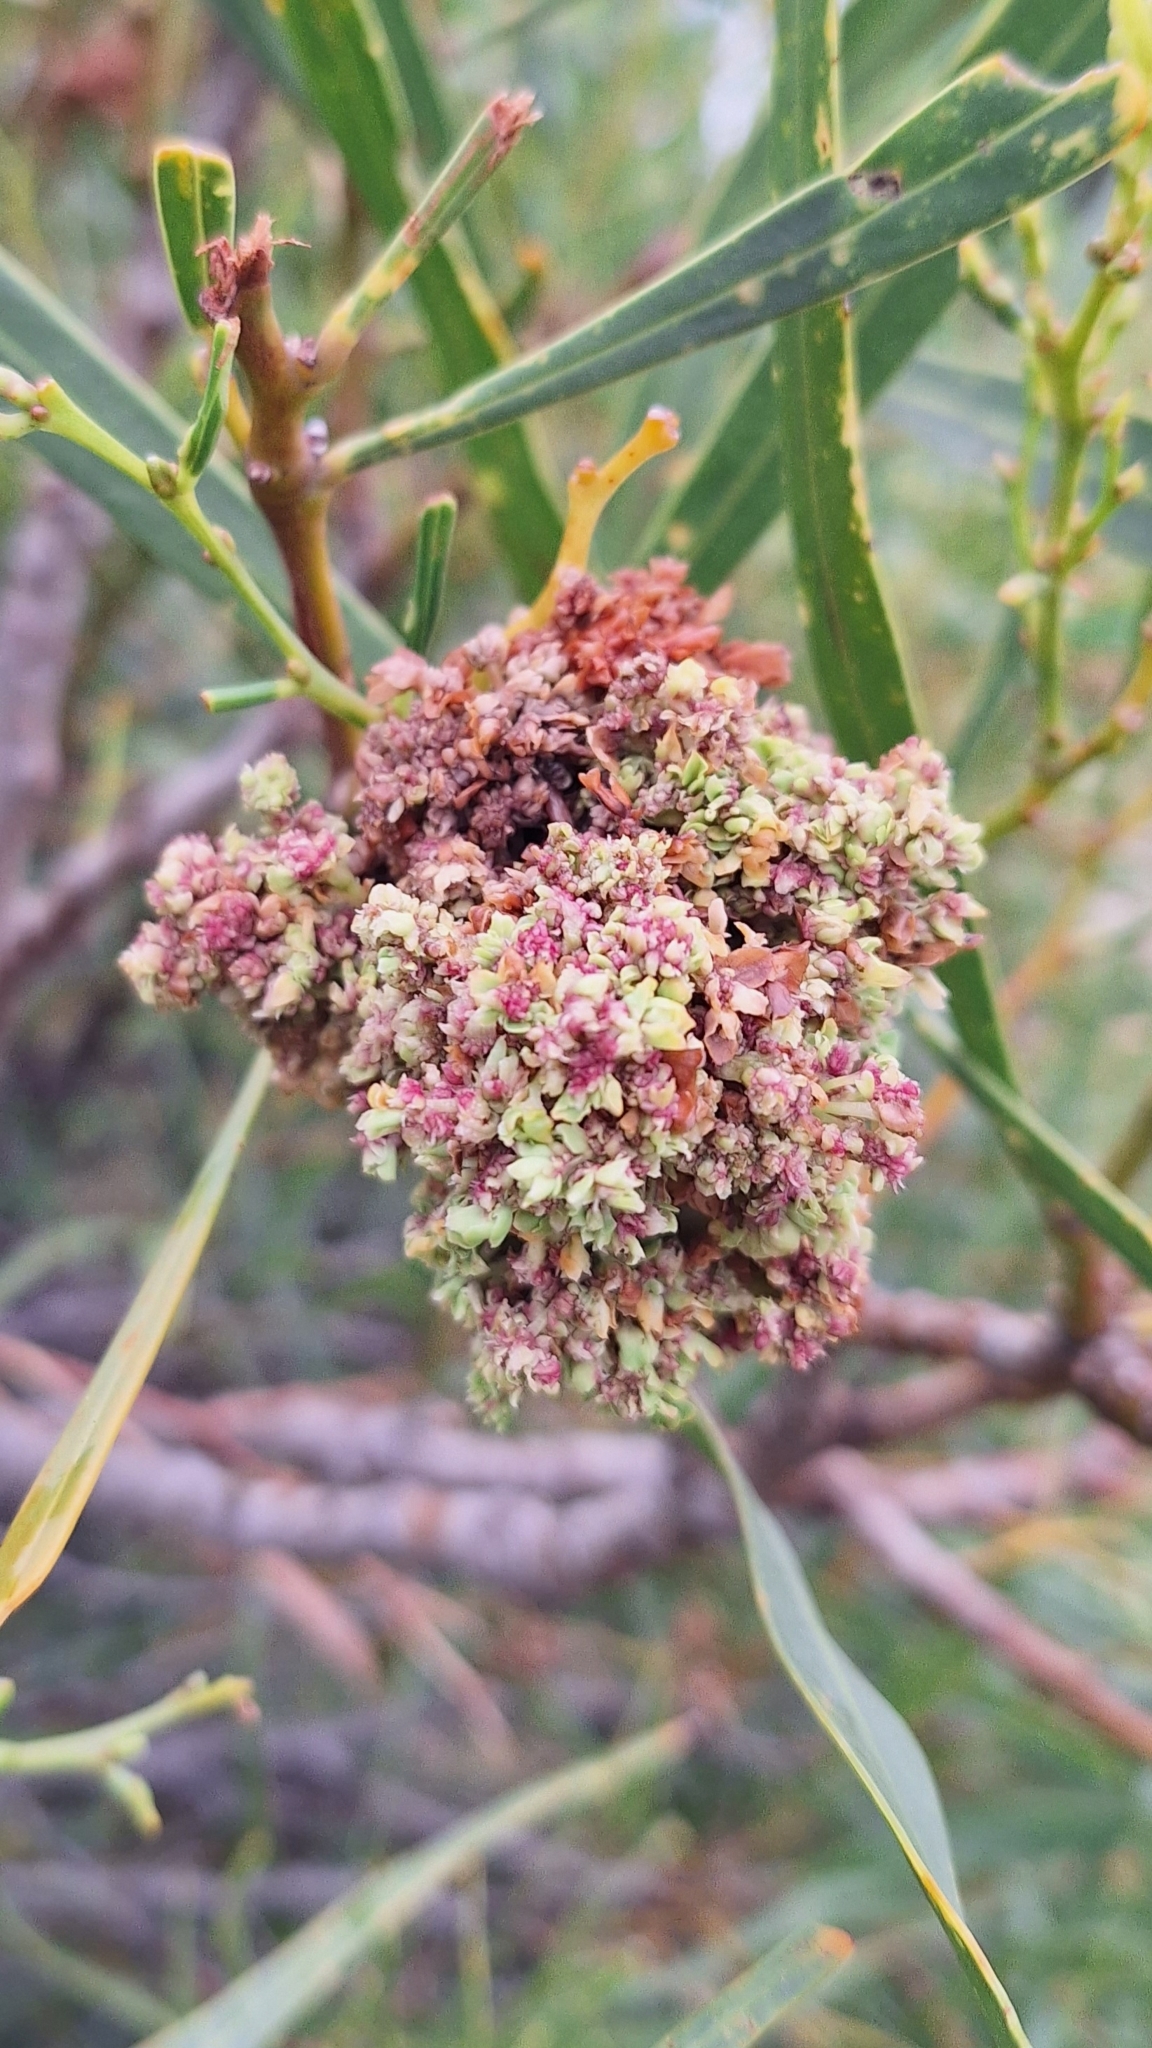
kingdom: Plantae
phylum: Tracheophyta
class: Magnoliopsida
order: Fabales
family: Fabaceae
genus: Acacia
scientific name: Acacia saligna
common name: Orange wattle
